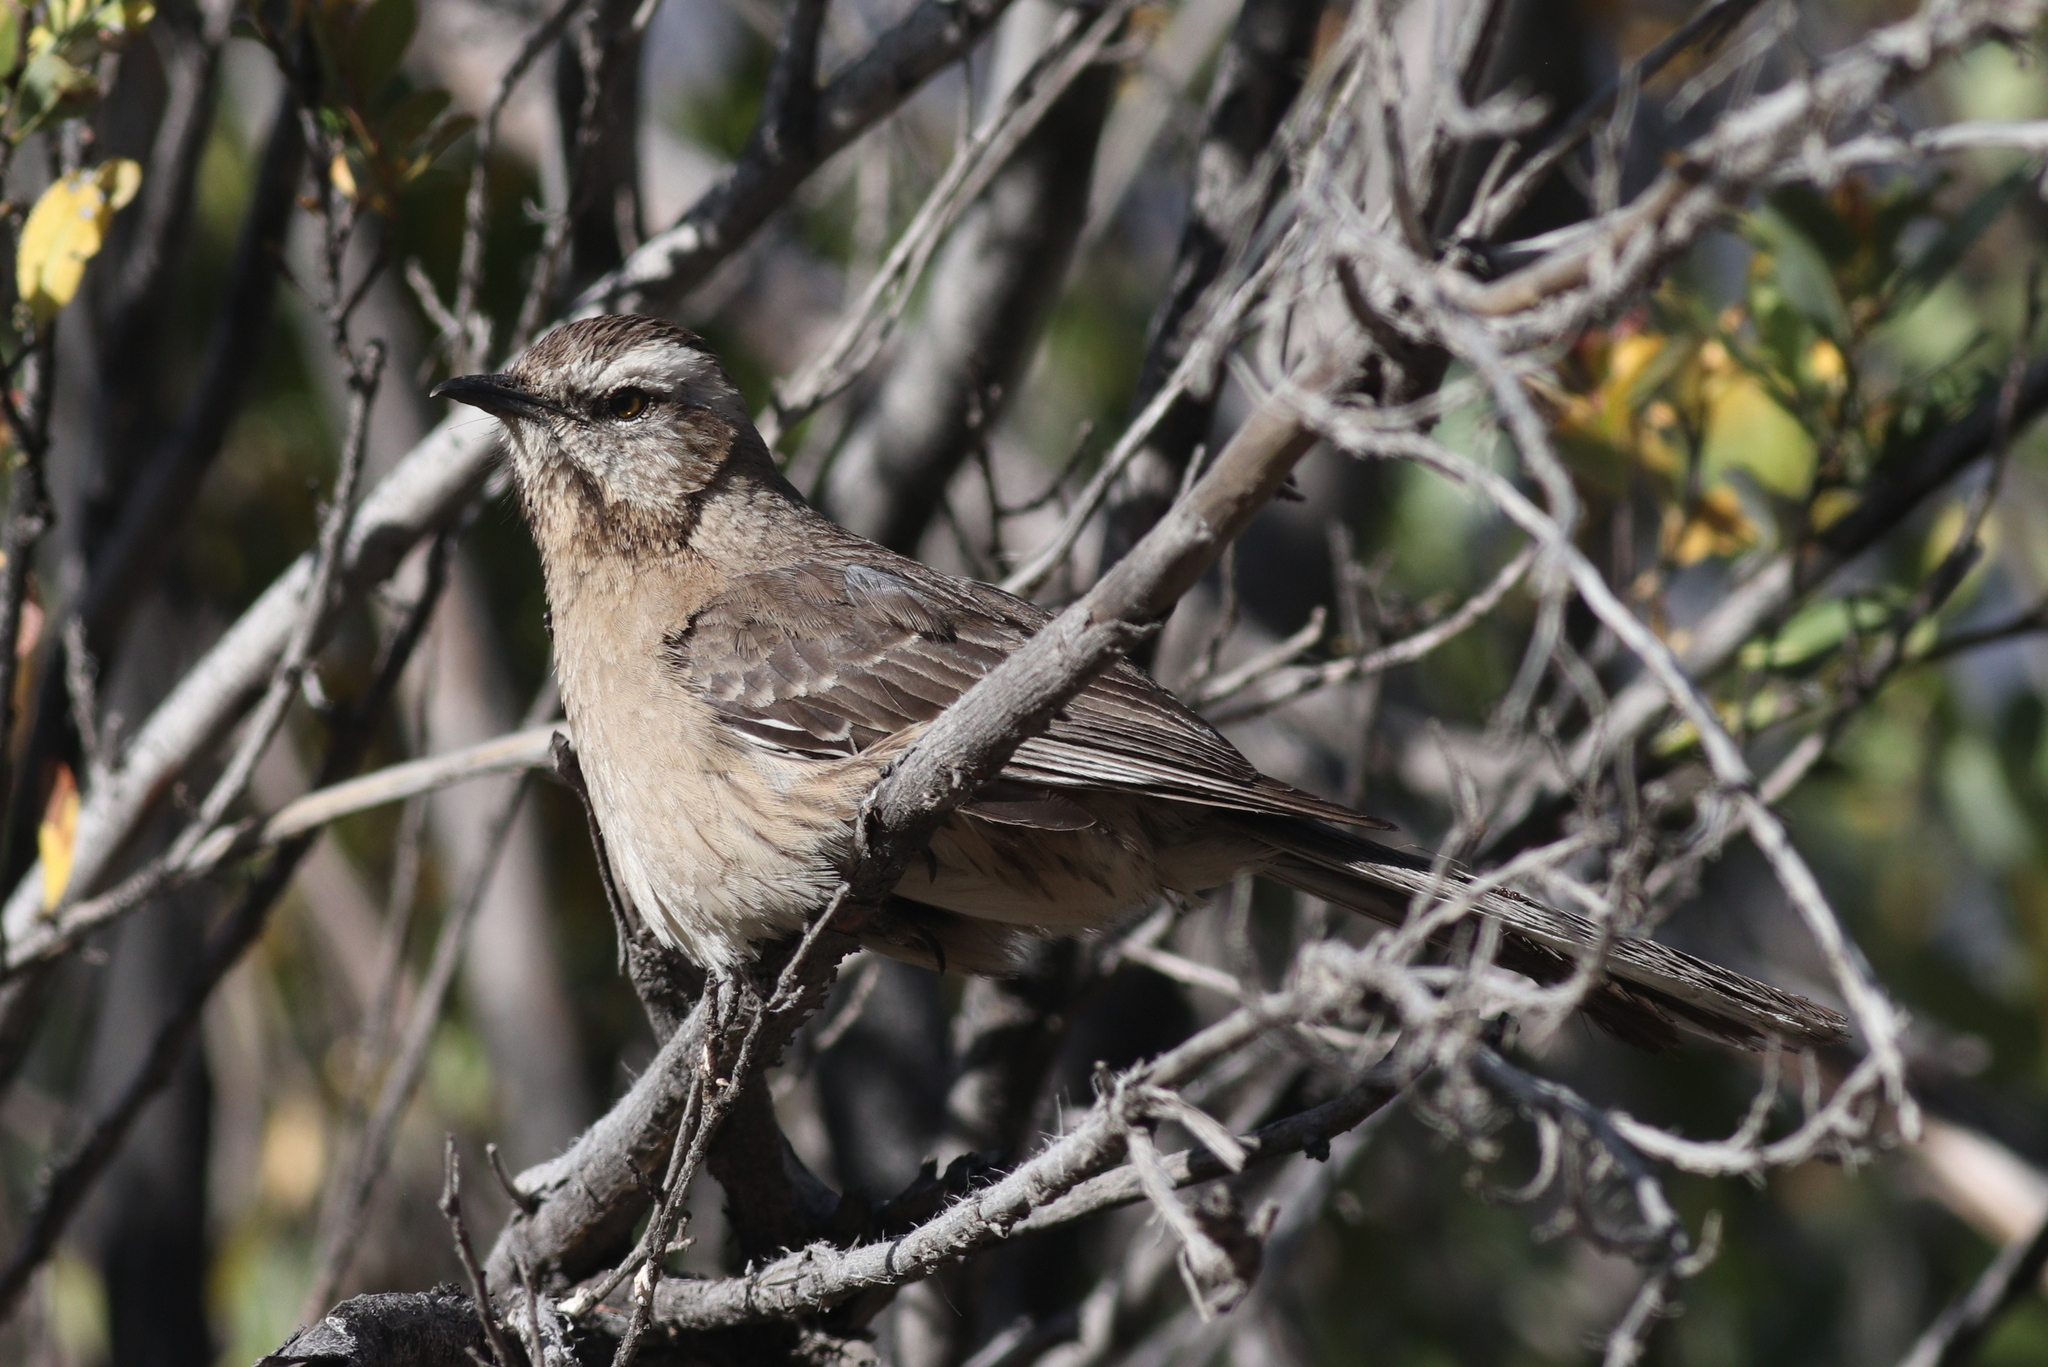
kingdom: Animalia
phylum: Chordata
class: Aves
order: Passeriformes
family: Mimidae
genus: Mimus
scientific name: Mimus thenca
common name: Chilean mockingbird
